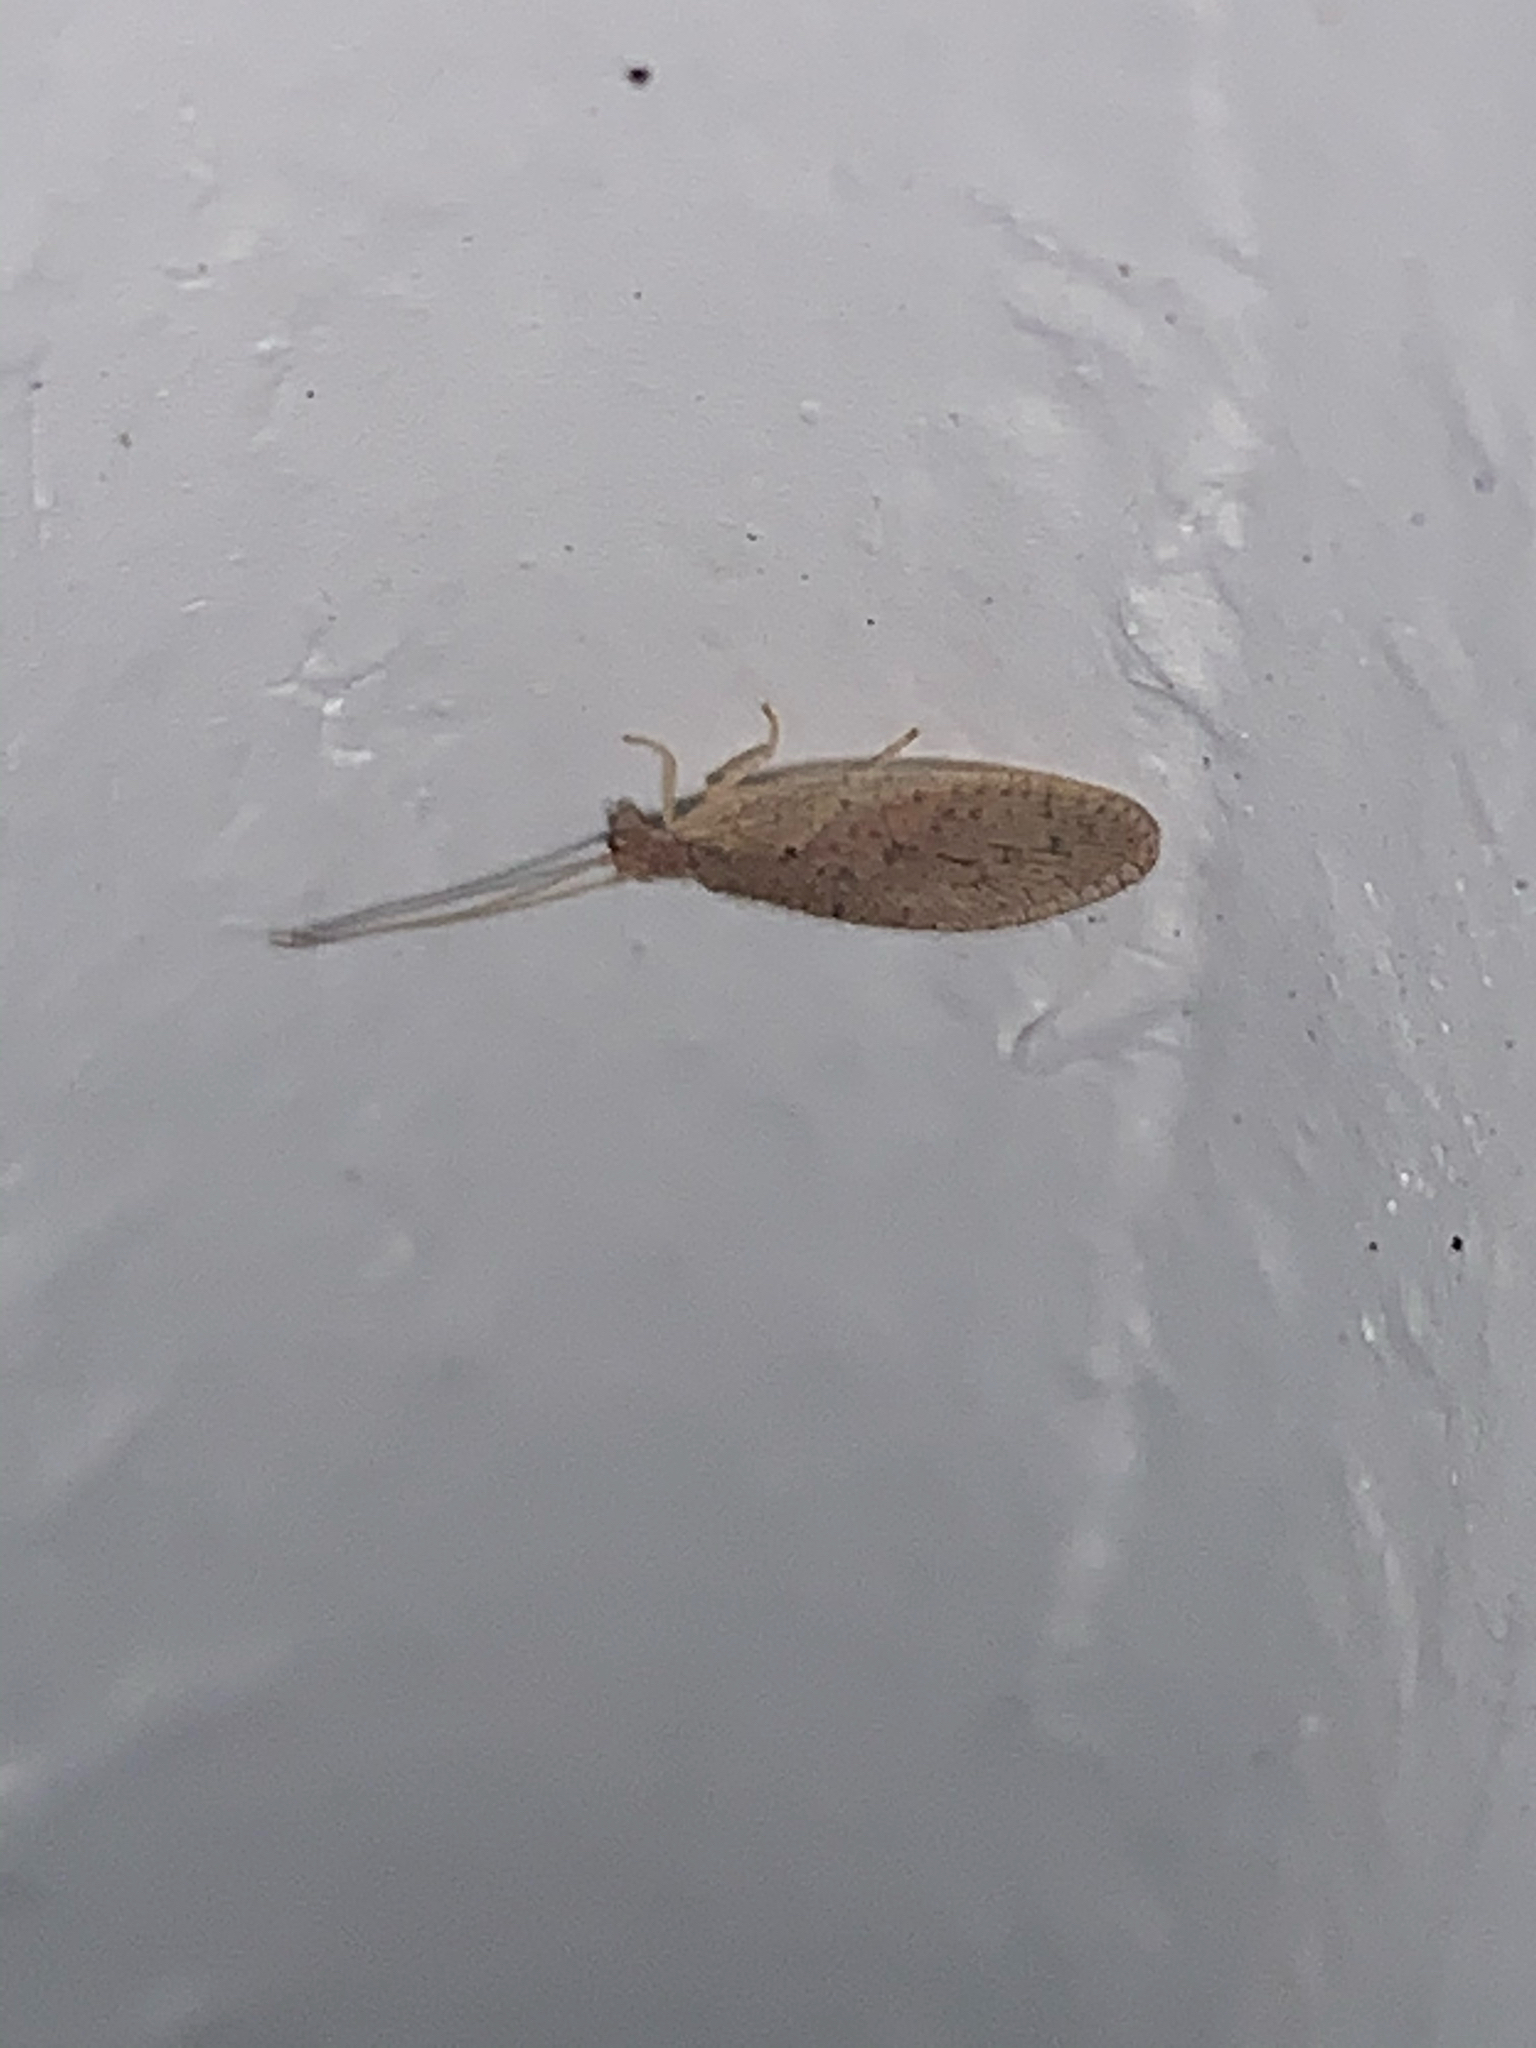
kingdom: Animalia
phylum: Arthropoda
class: Insecta
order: Neuroptera
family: Hemerobiidae
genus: Micromus
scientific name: Micromus subanticus
